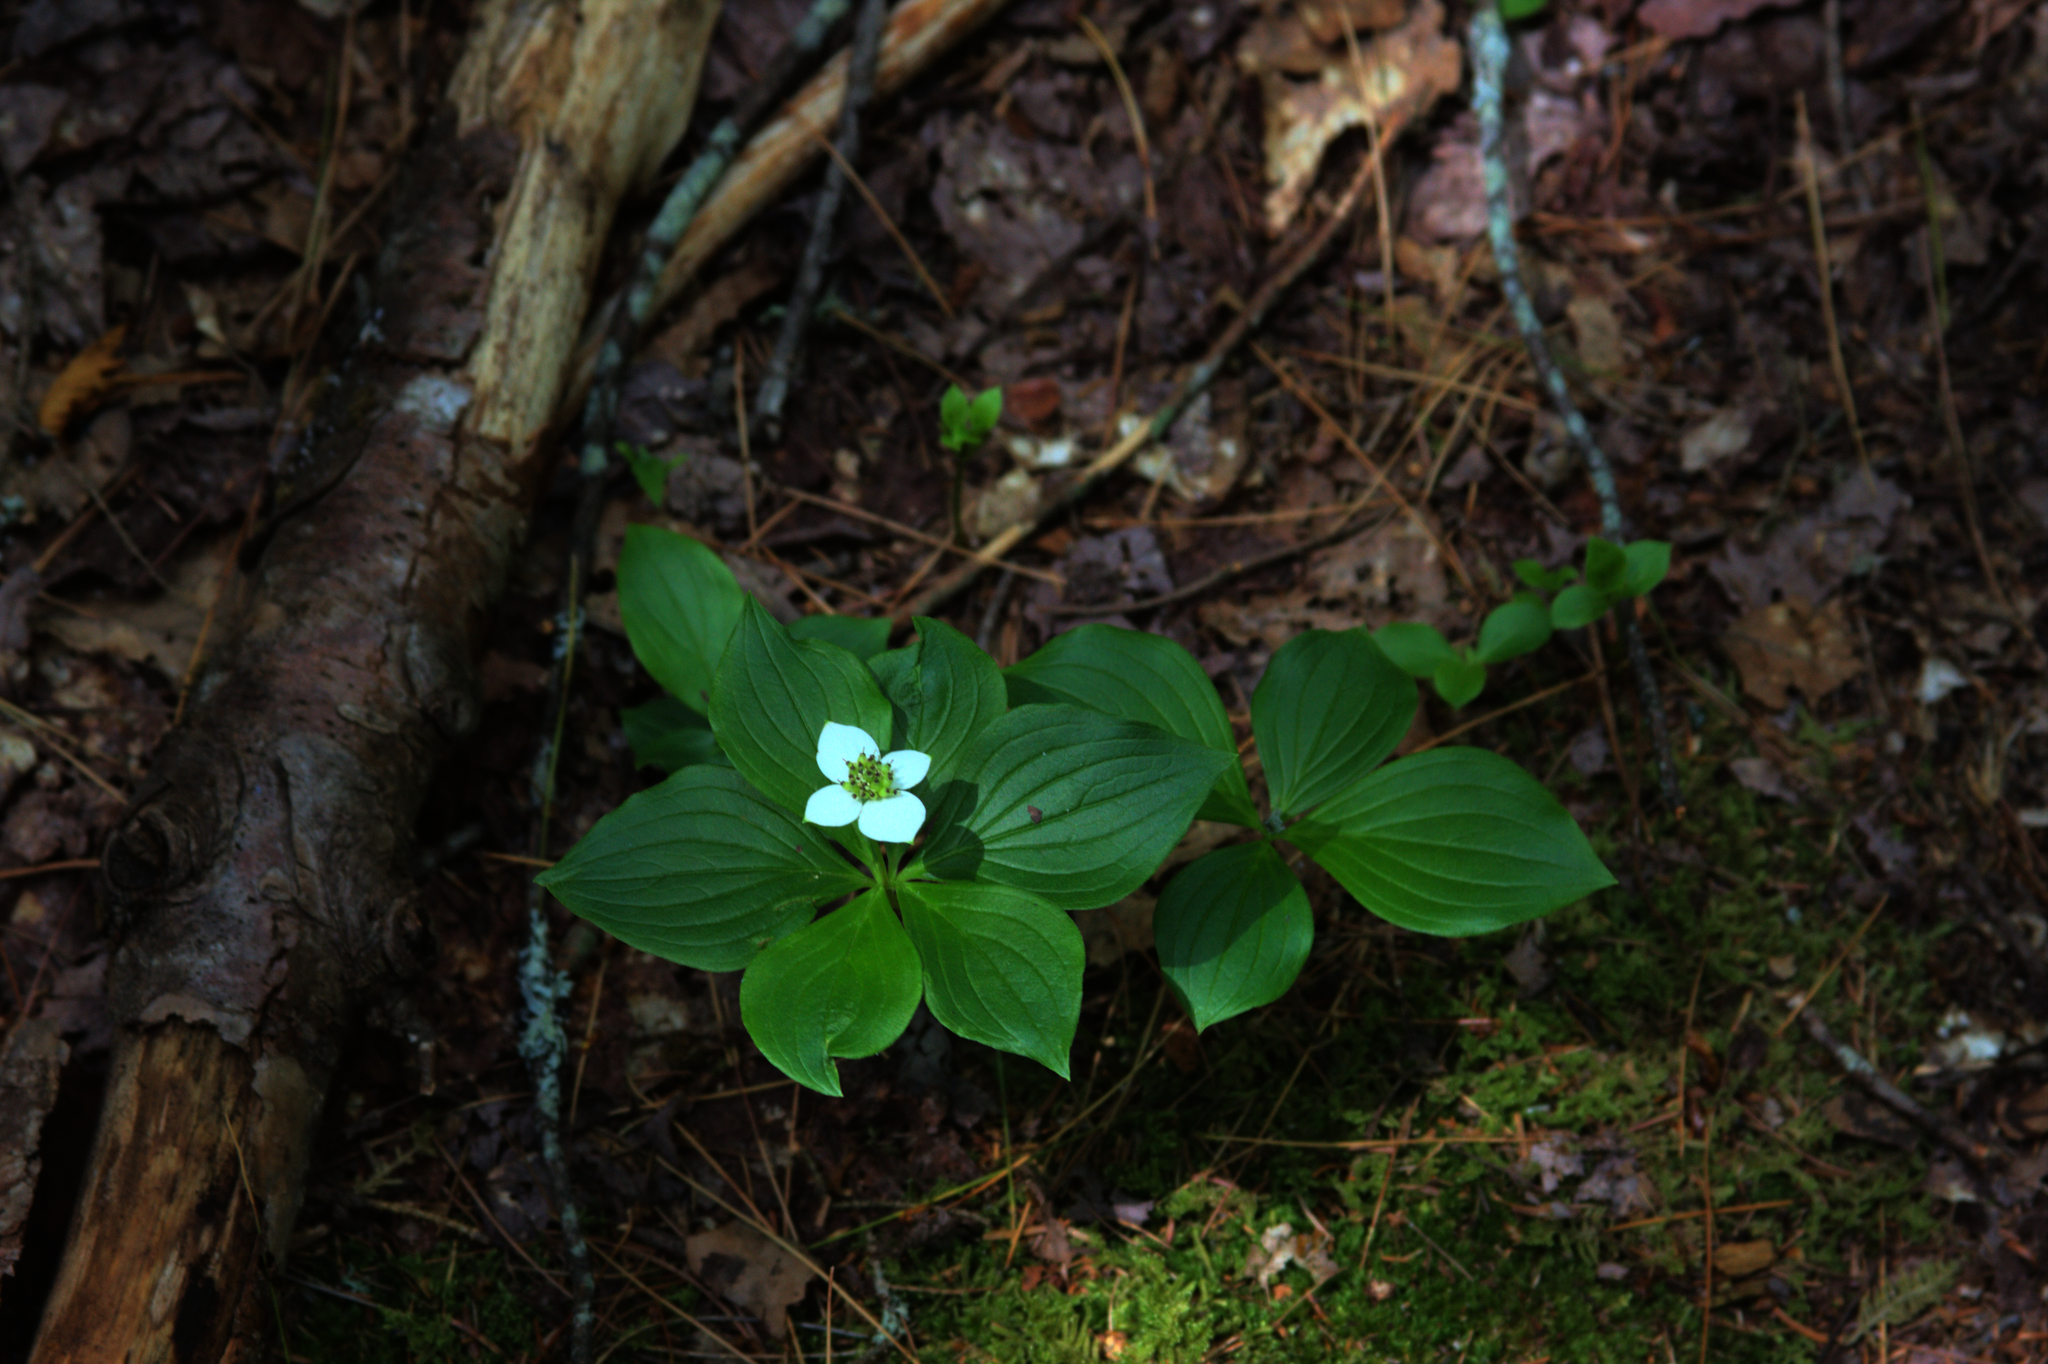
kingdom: Plantae
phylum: Tracheophyta
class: Magnoliopsida
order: Cornales
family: Cornaceae
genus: Cornus
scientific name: Cornus canadensis
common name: Creeping dogwood
